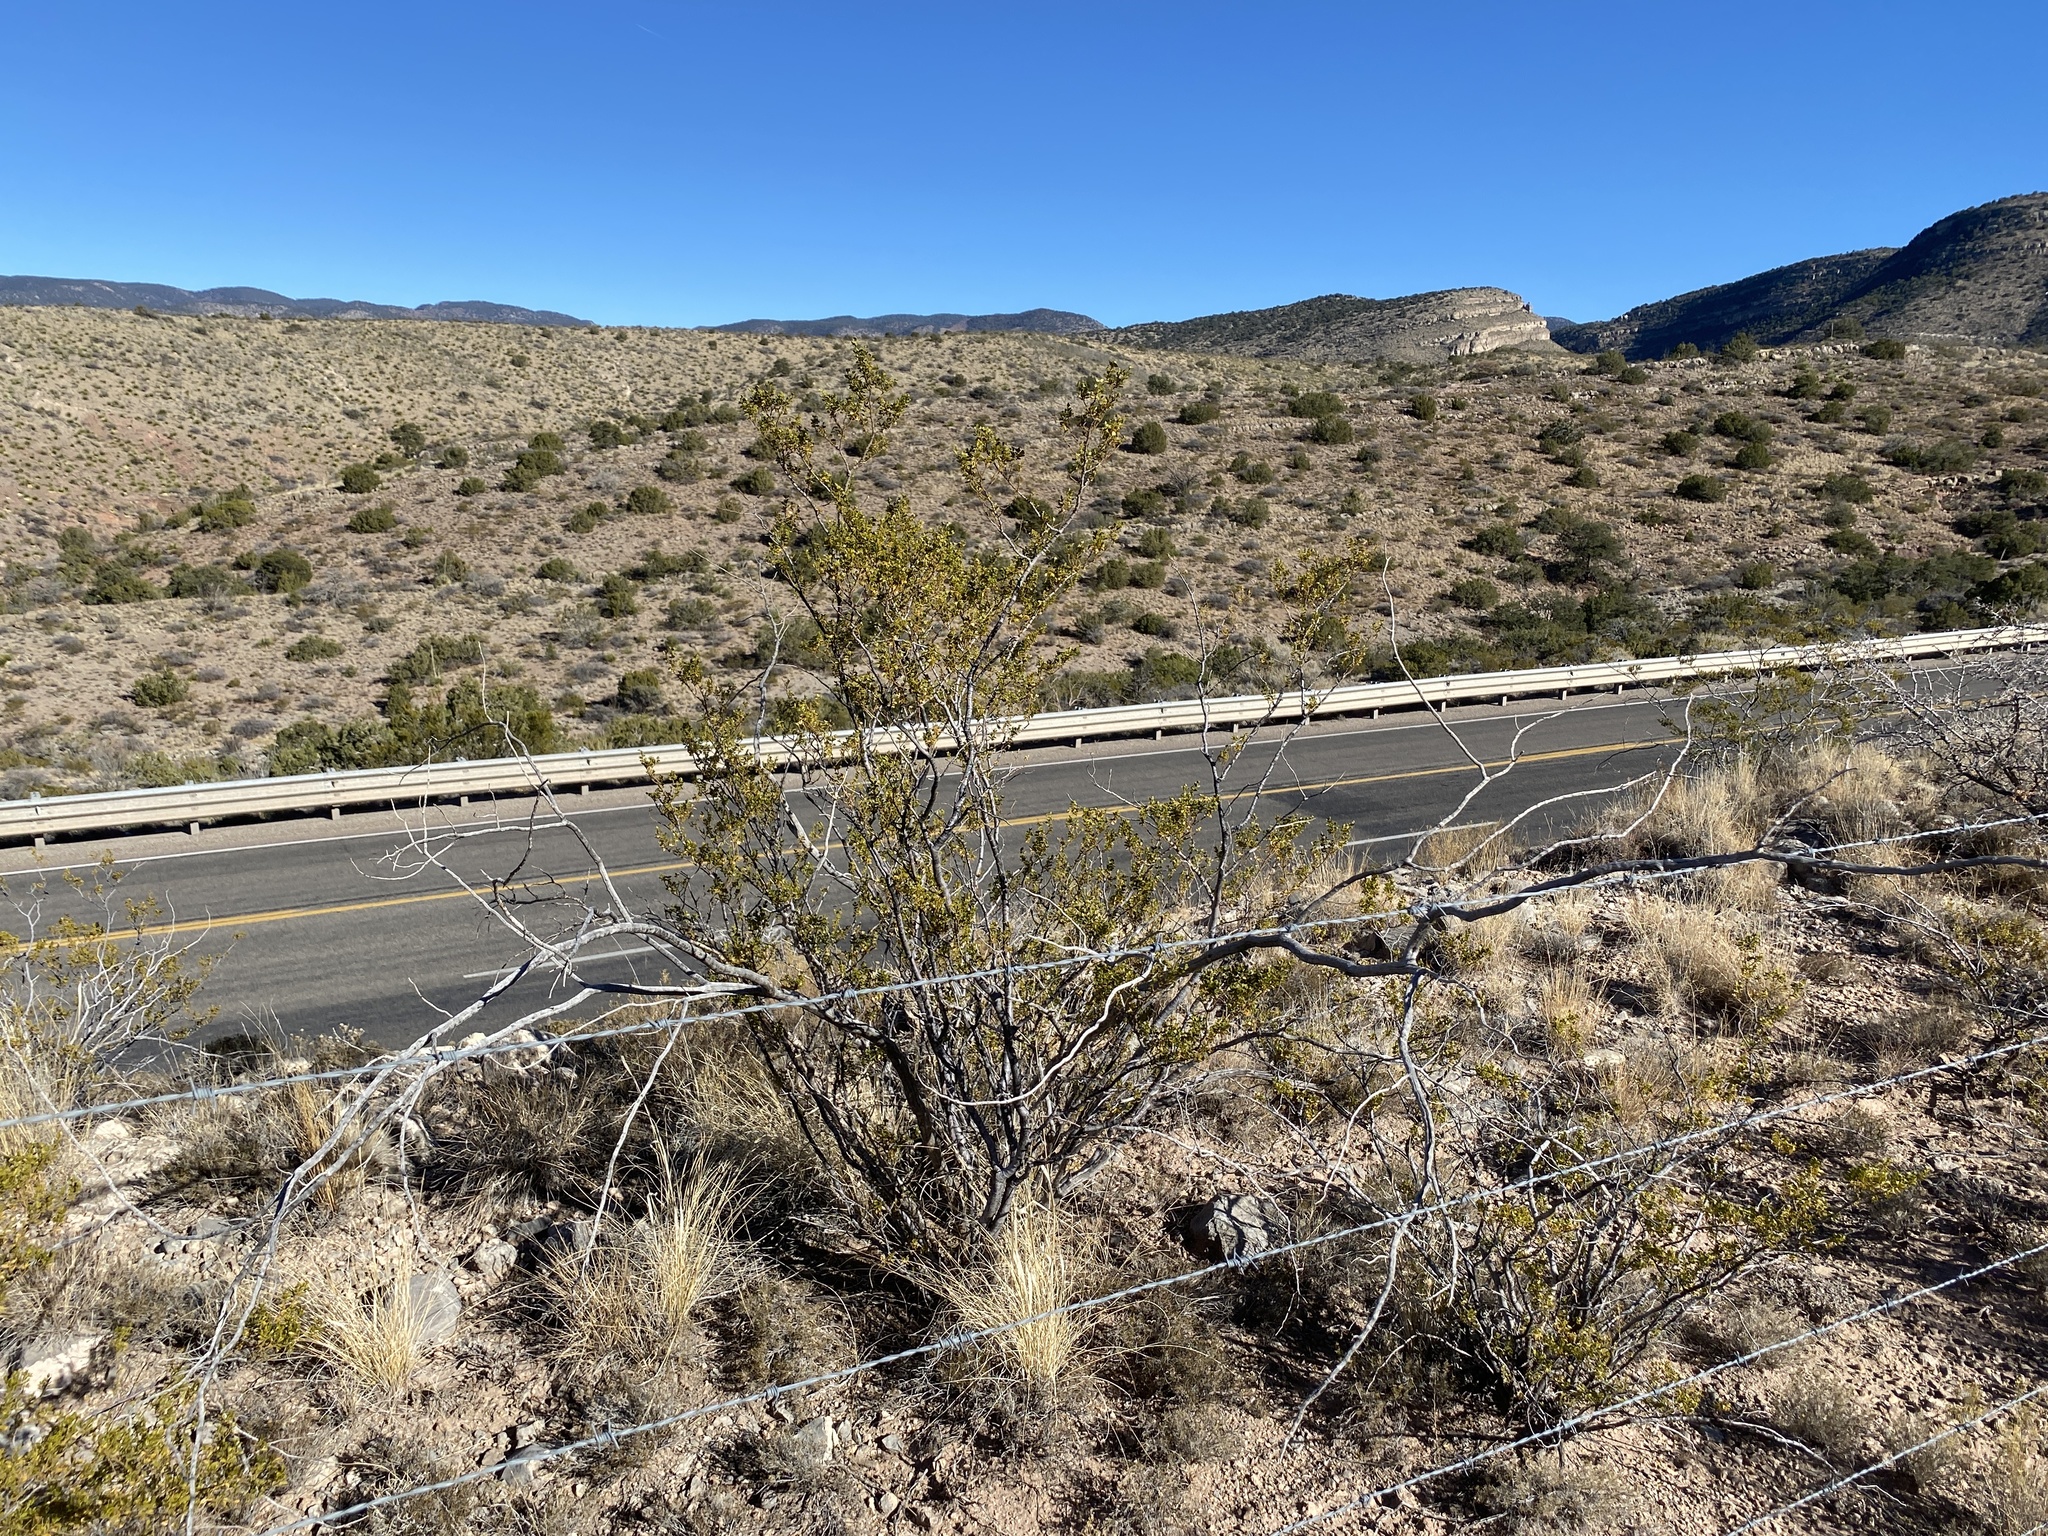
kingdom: Plantae
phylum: Tracheophyta
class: Magnoliopsida
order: Zygophyllales
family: Zygophyllaceae
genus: Larrea
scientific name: Larrea tridentata
